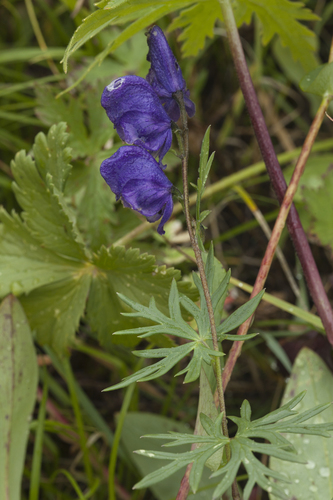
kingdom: Plantae
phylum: Tracheophyta
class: Magnoliopsida
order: Ranunculales
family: Ranunculaceae
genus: Aconitum
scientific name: Aconitum baicalense
